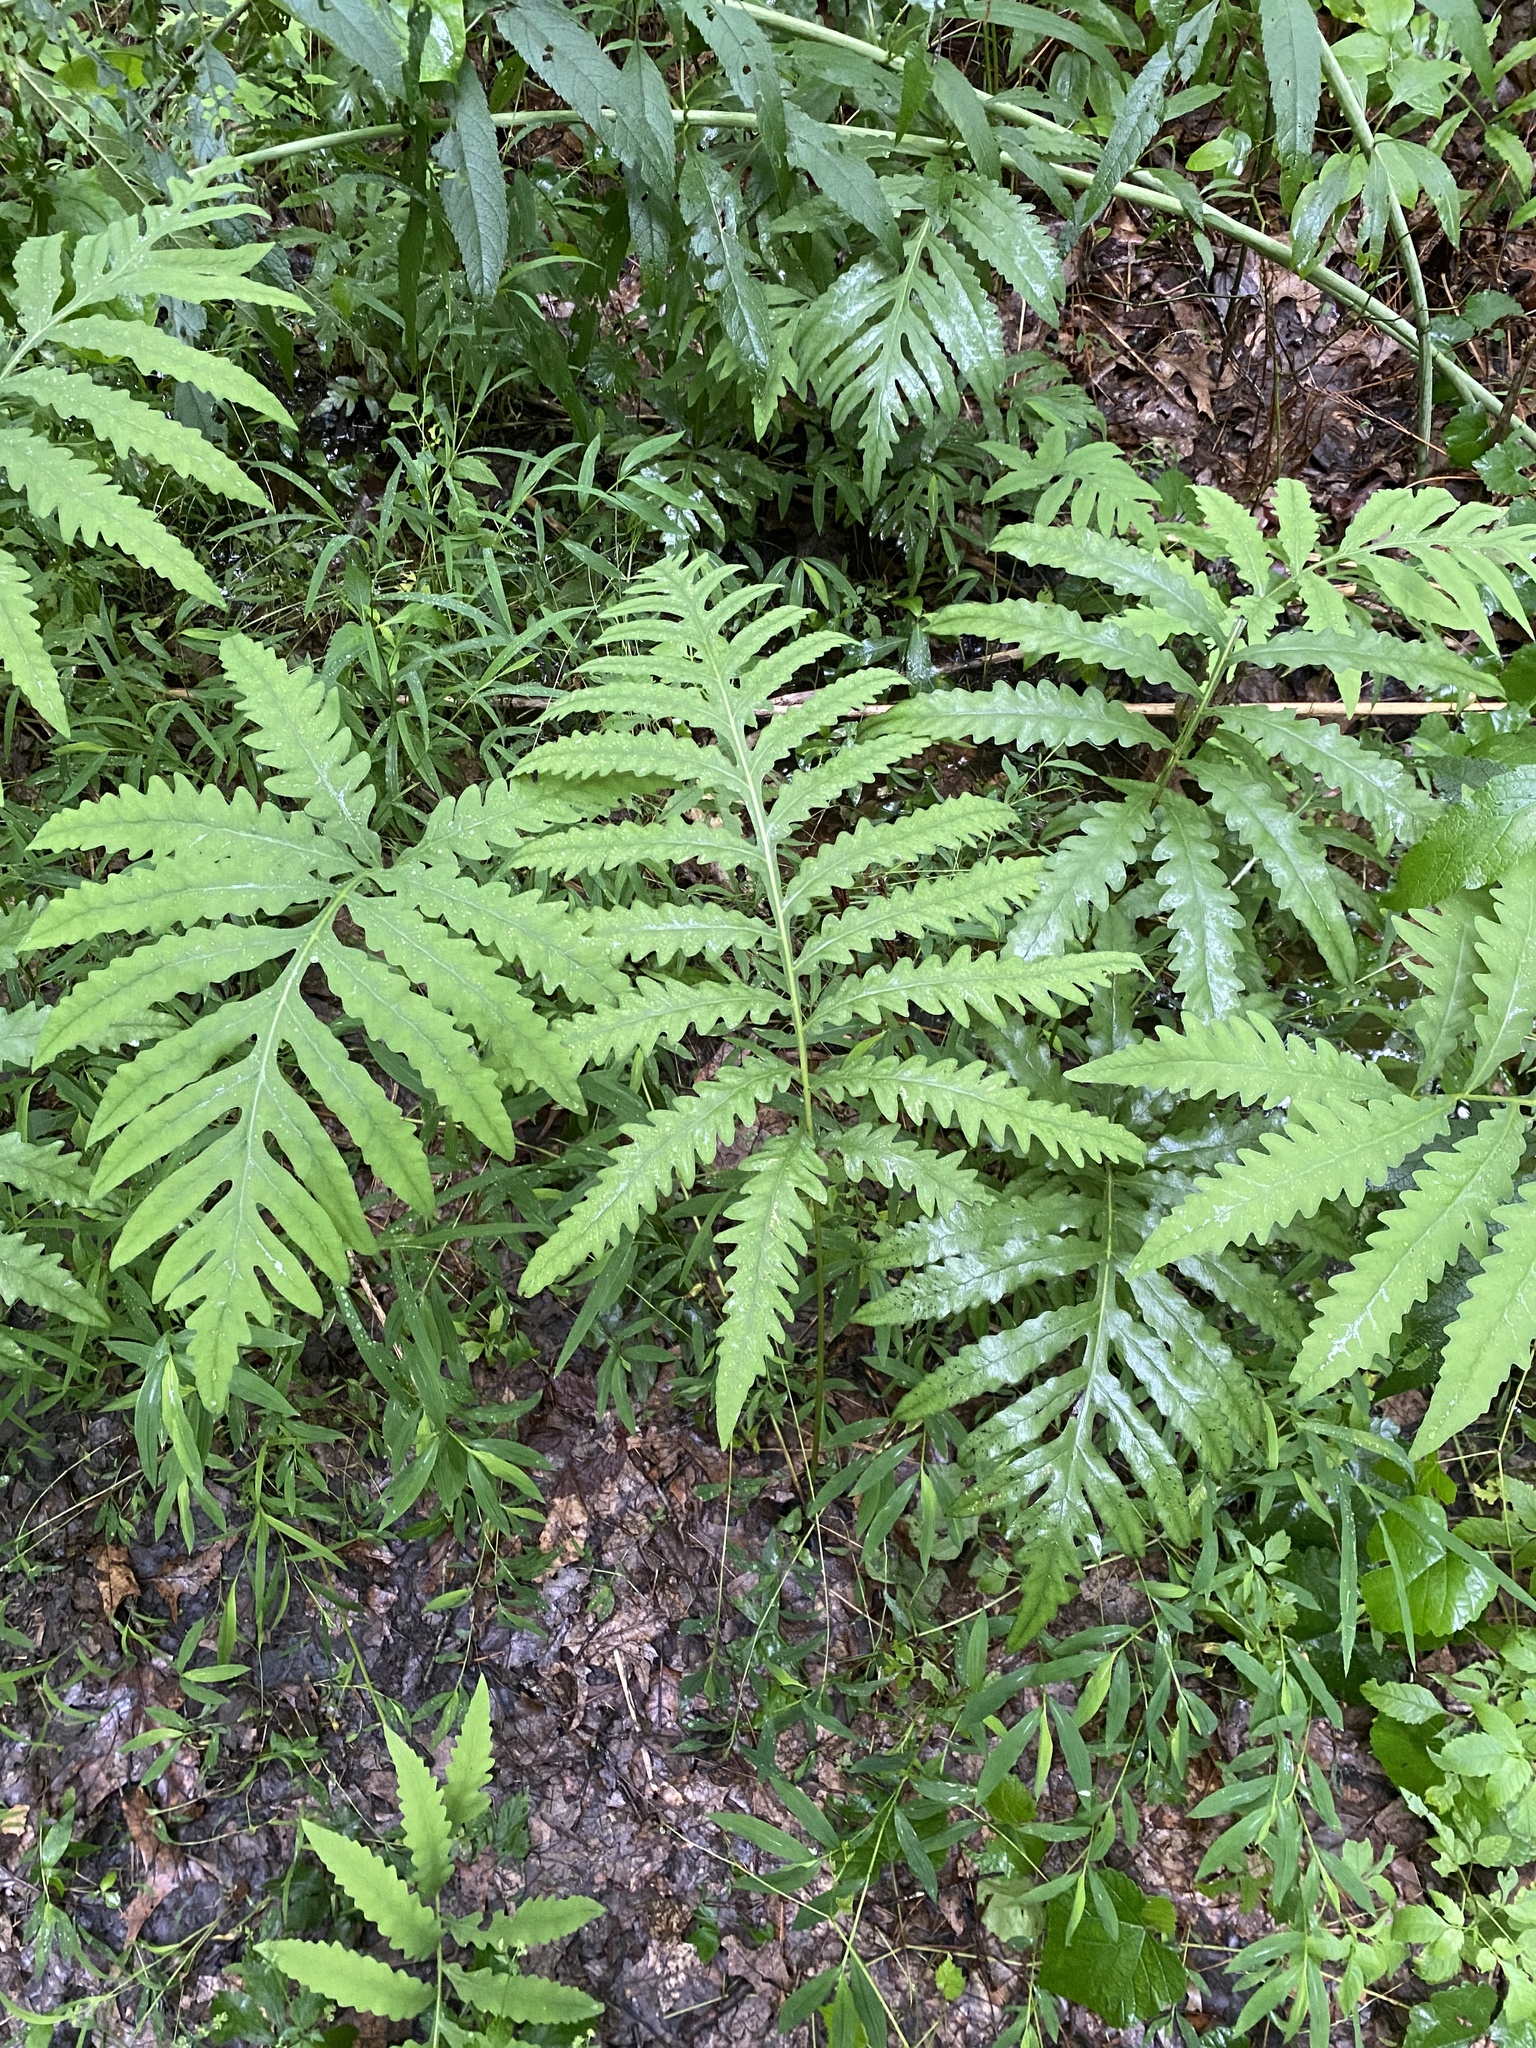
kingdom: Plantae
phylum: Tracheophyta
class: Polypodiopsida
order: Polypodiales
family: Onocleaceae
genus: Onoclea
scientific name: Onoclea sensibilis
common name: Sensitive fern
